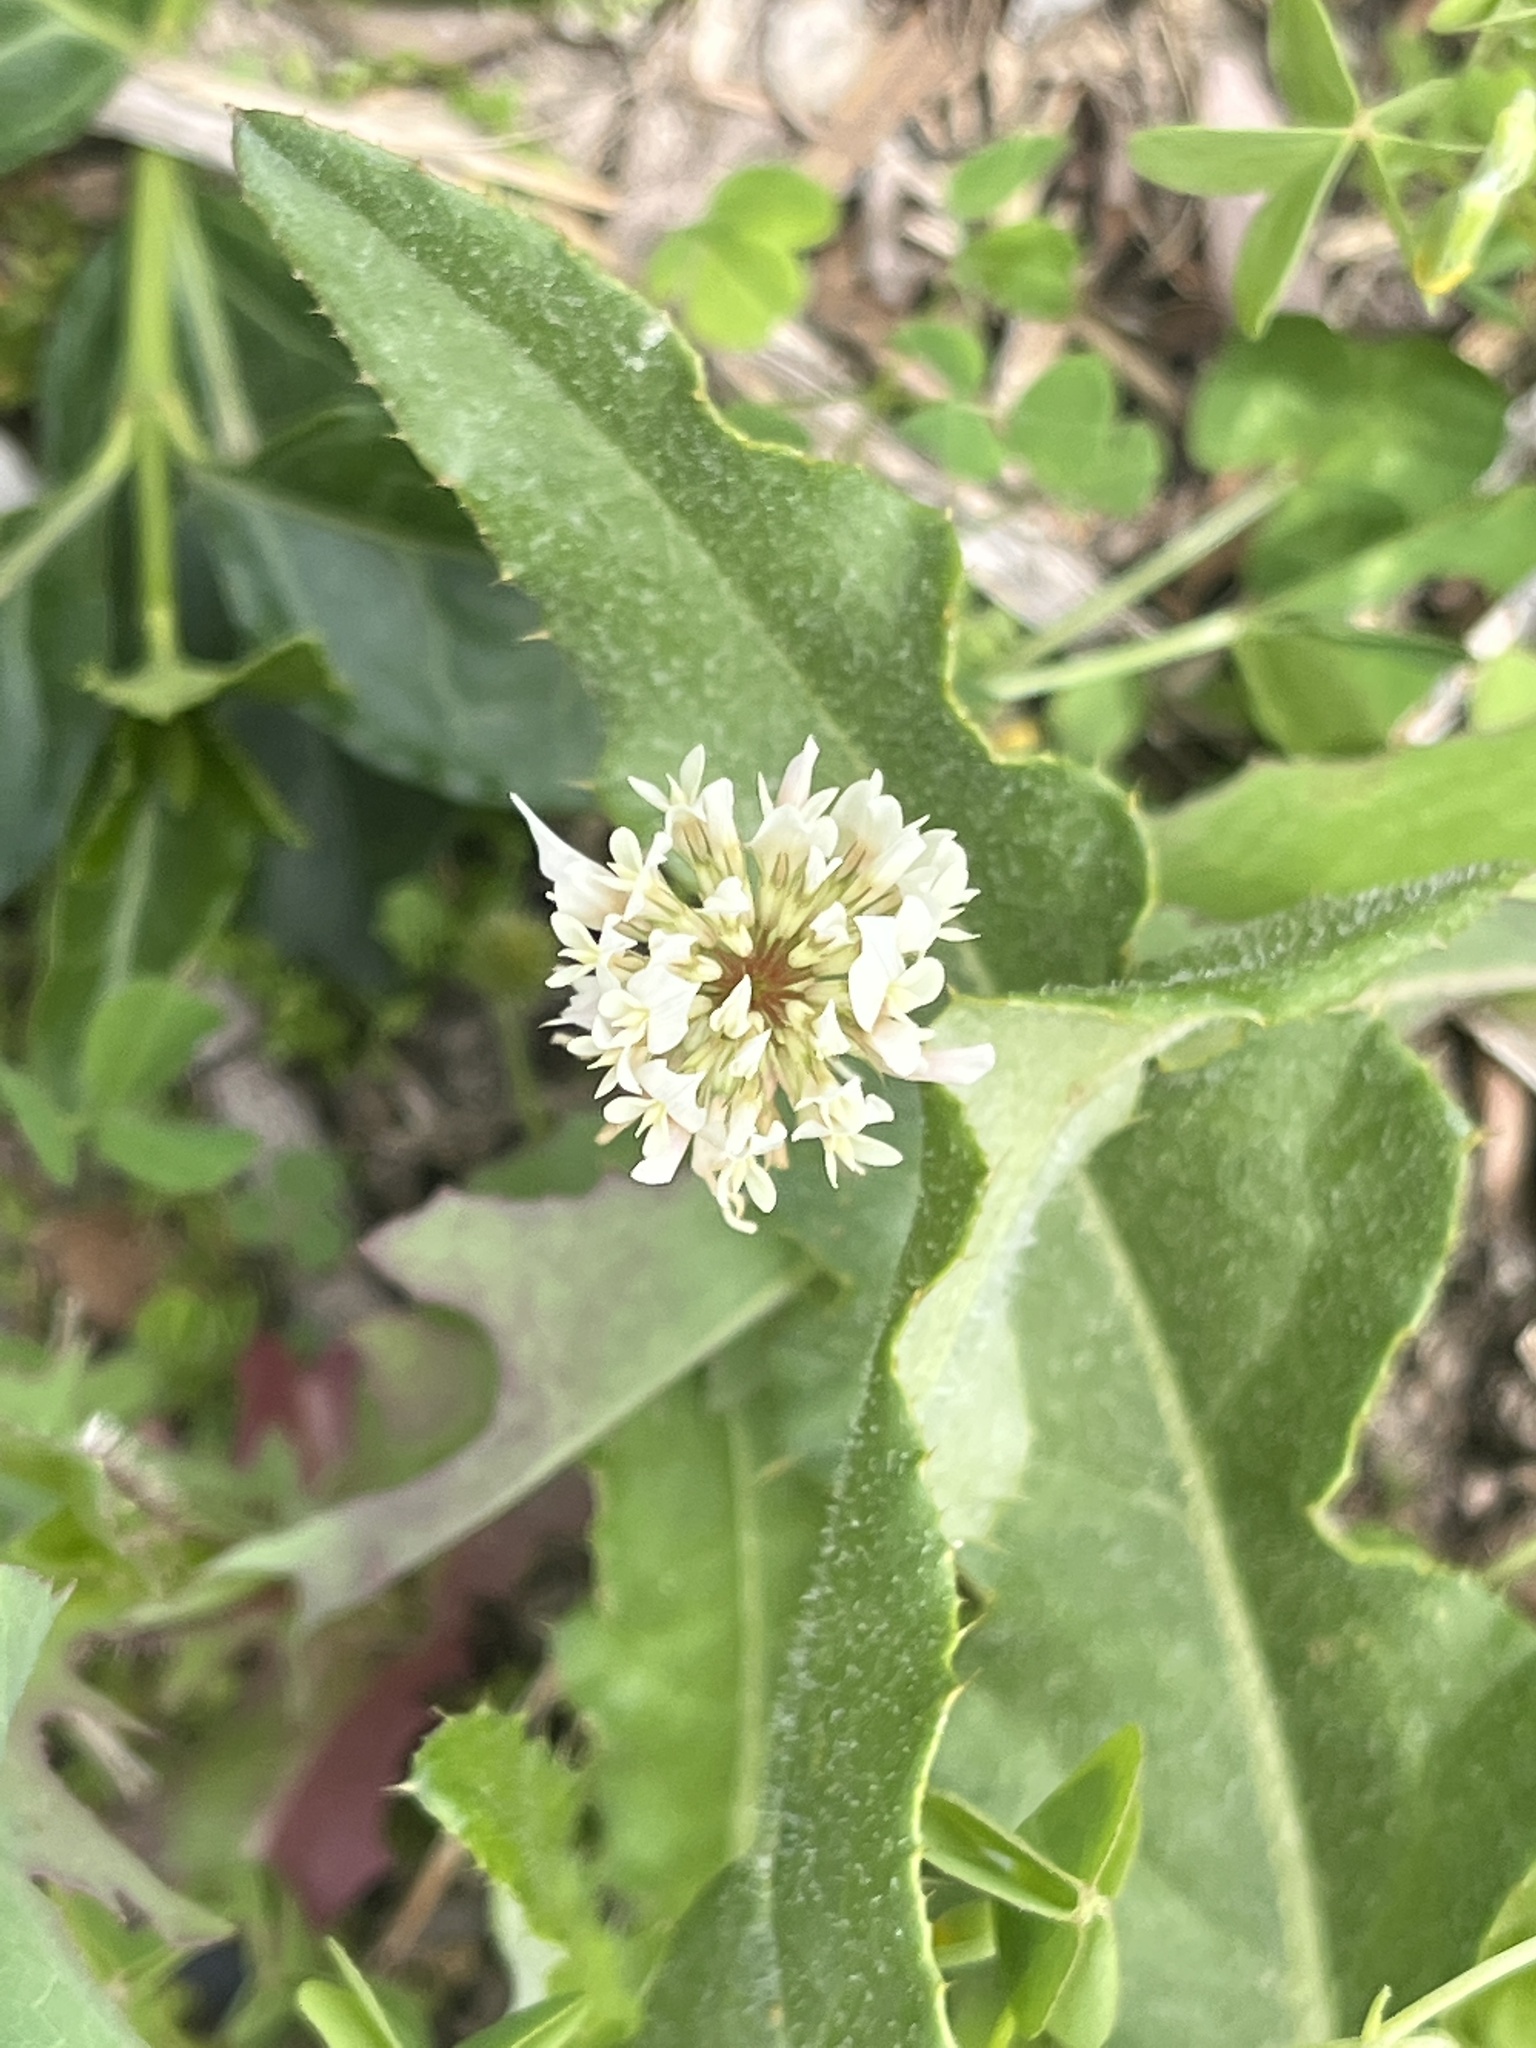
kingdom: Plantae
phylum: Tracheophyta
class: Magnoliopsida
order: Fabales
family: Fabaceae
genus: Trifolium
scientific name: Trifolium repens
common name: White clover
